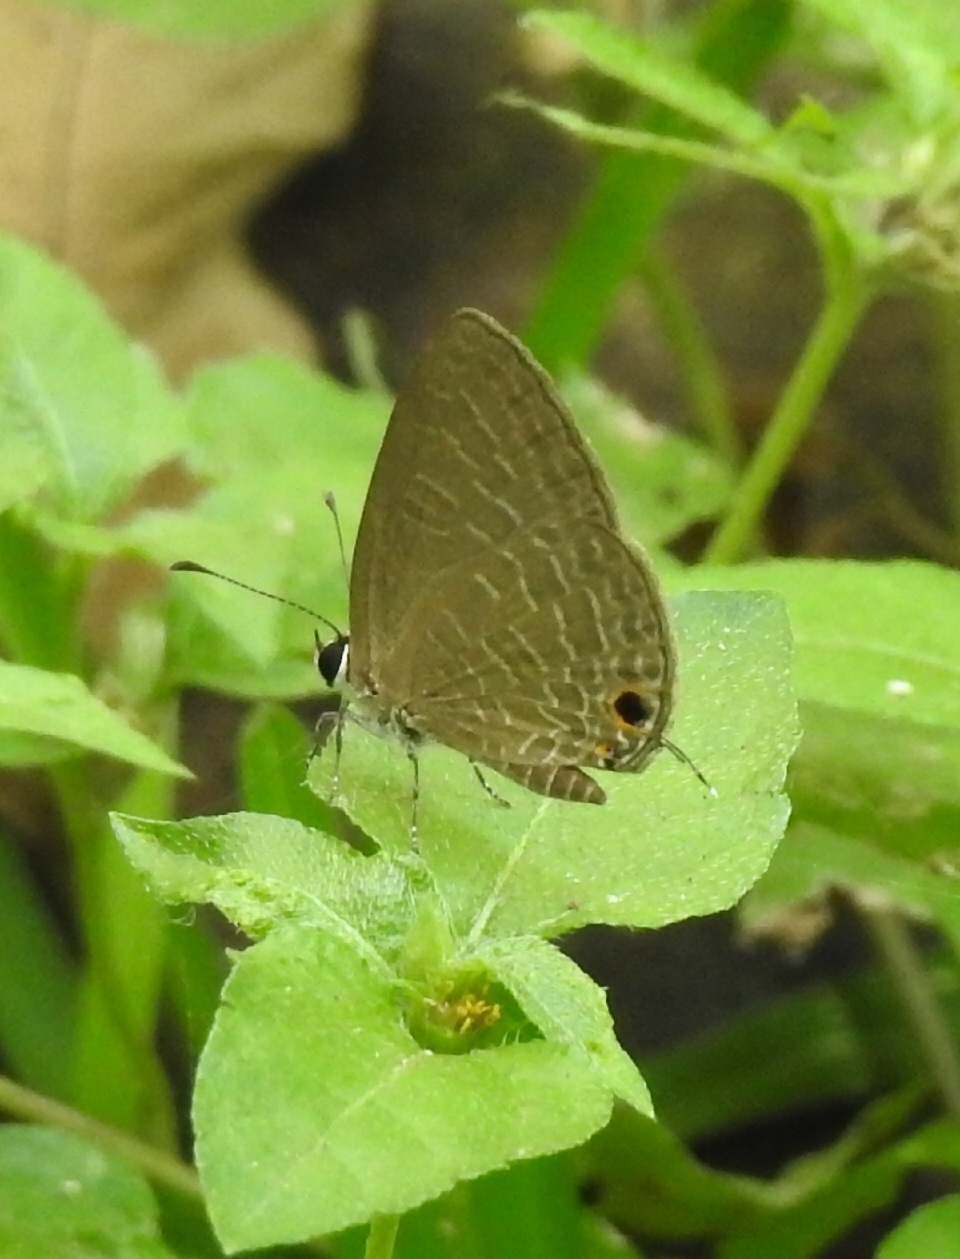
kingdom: Animalia
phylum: Arthropoda
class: Insecta
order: Lepidoptera
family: Lycaenidae
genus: Jamides
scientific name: Jamides bochus
